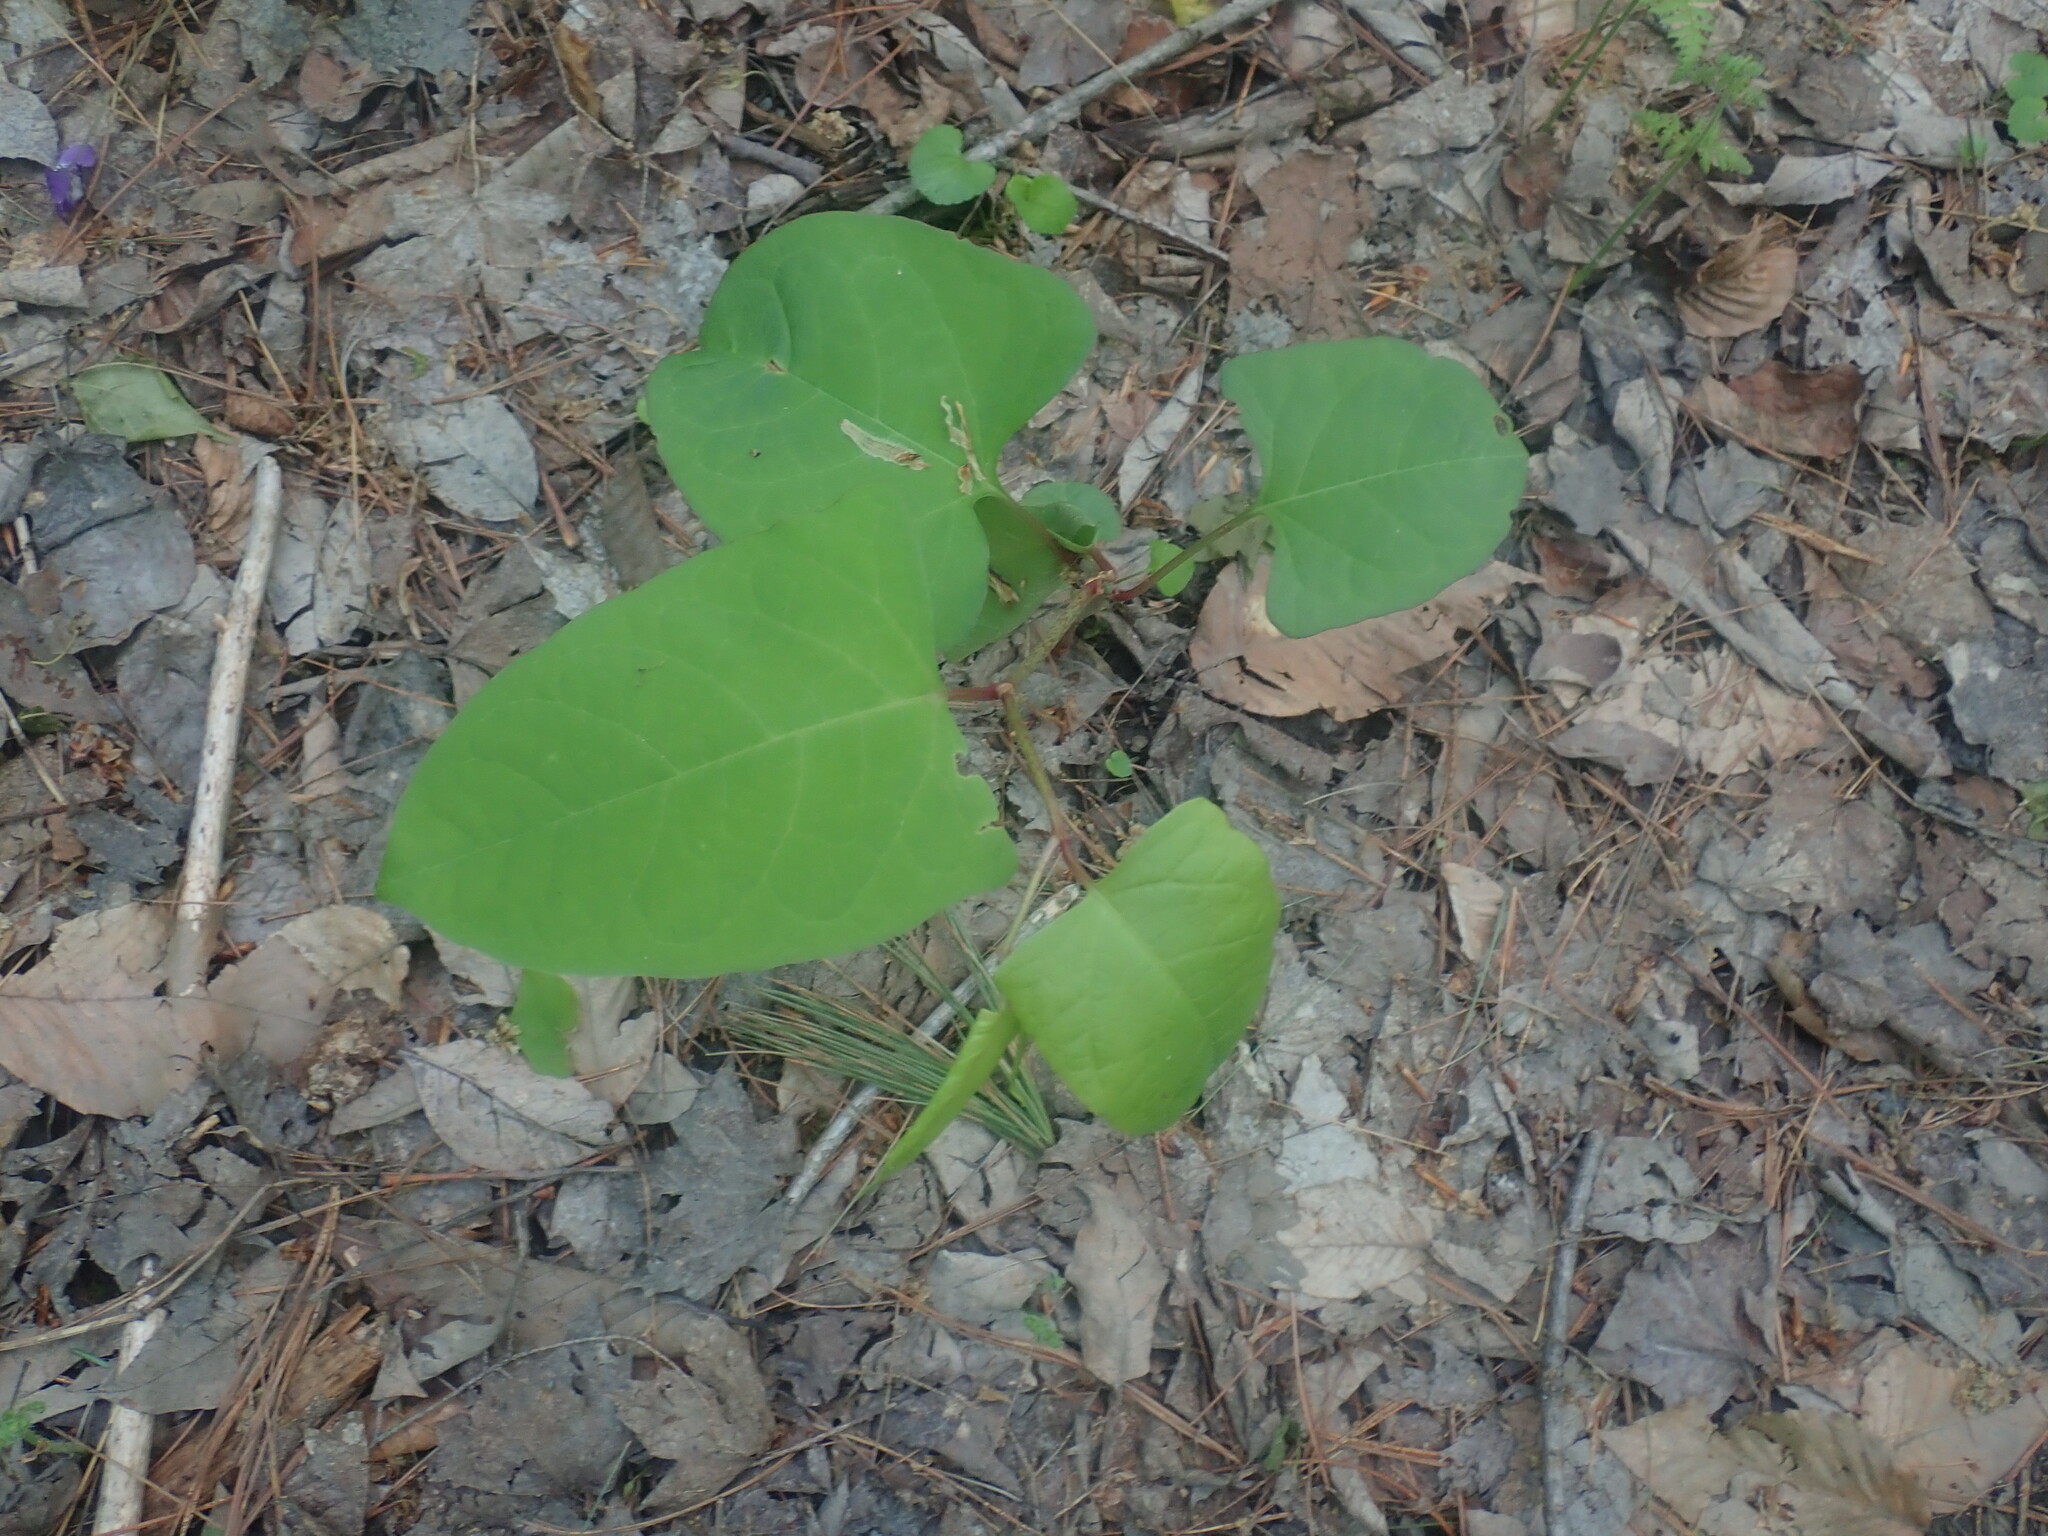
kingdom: Plantae
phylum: Tracheophyta
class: Magnoliopsida
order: Caryophyllales
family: Polygonaceae
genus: Reynoutria
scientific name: Reynoutria
